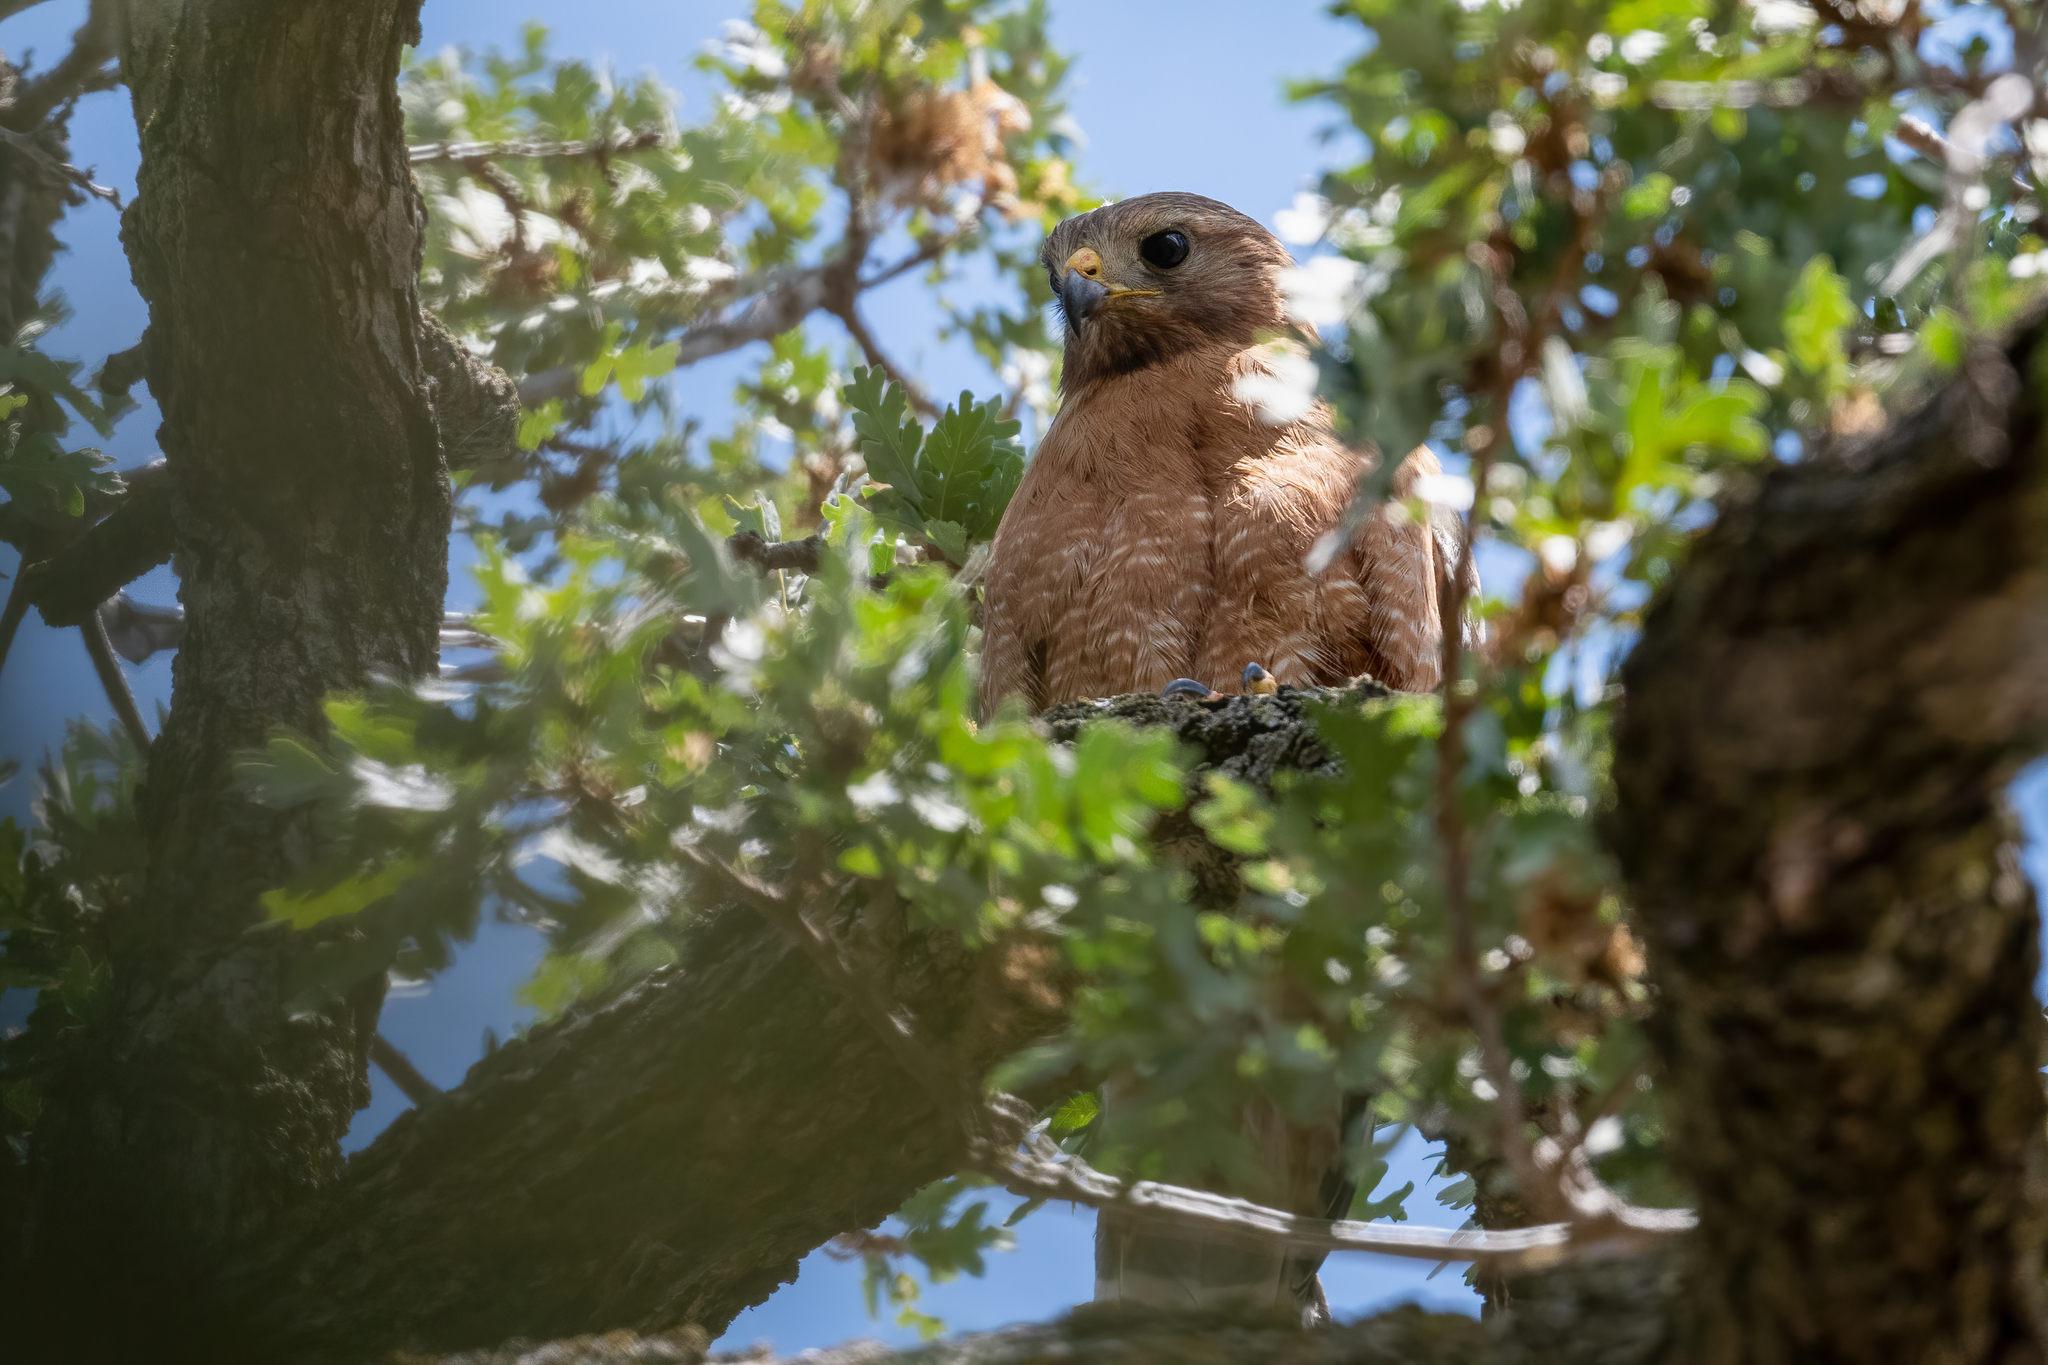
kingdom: Animalia
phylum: Chordata
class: Aves
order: Accipitriformes
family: Accipitridae
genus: Buteo
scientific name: Buteo lineatus
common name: Red-shouldered hawk
